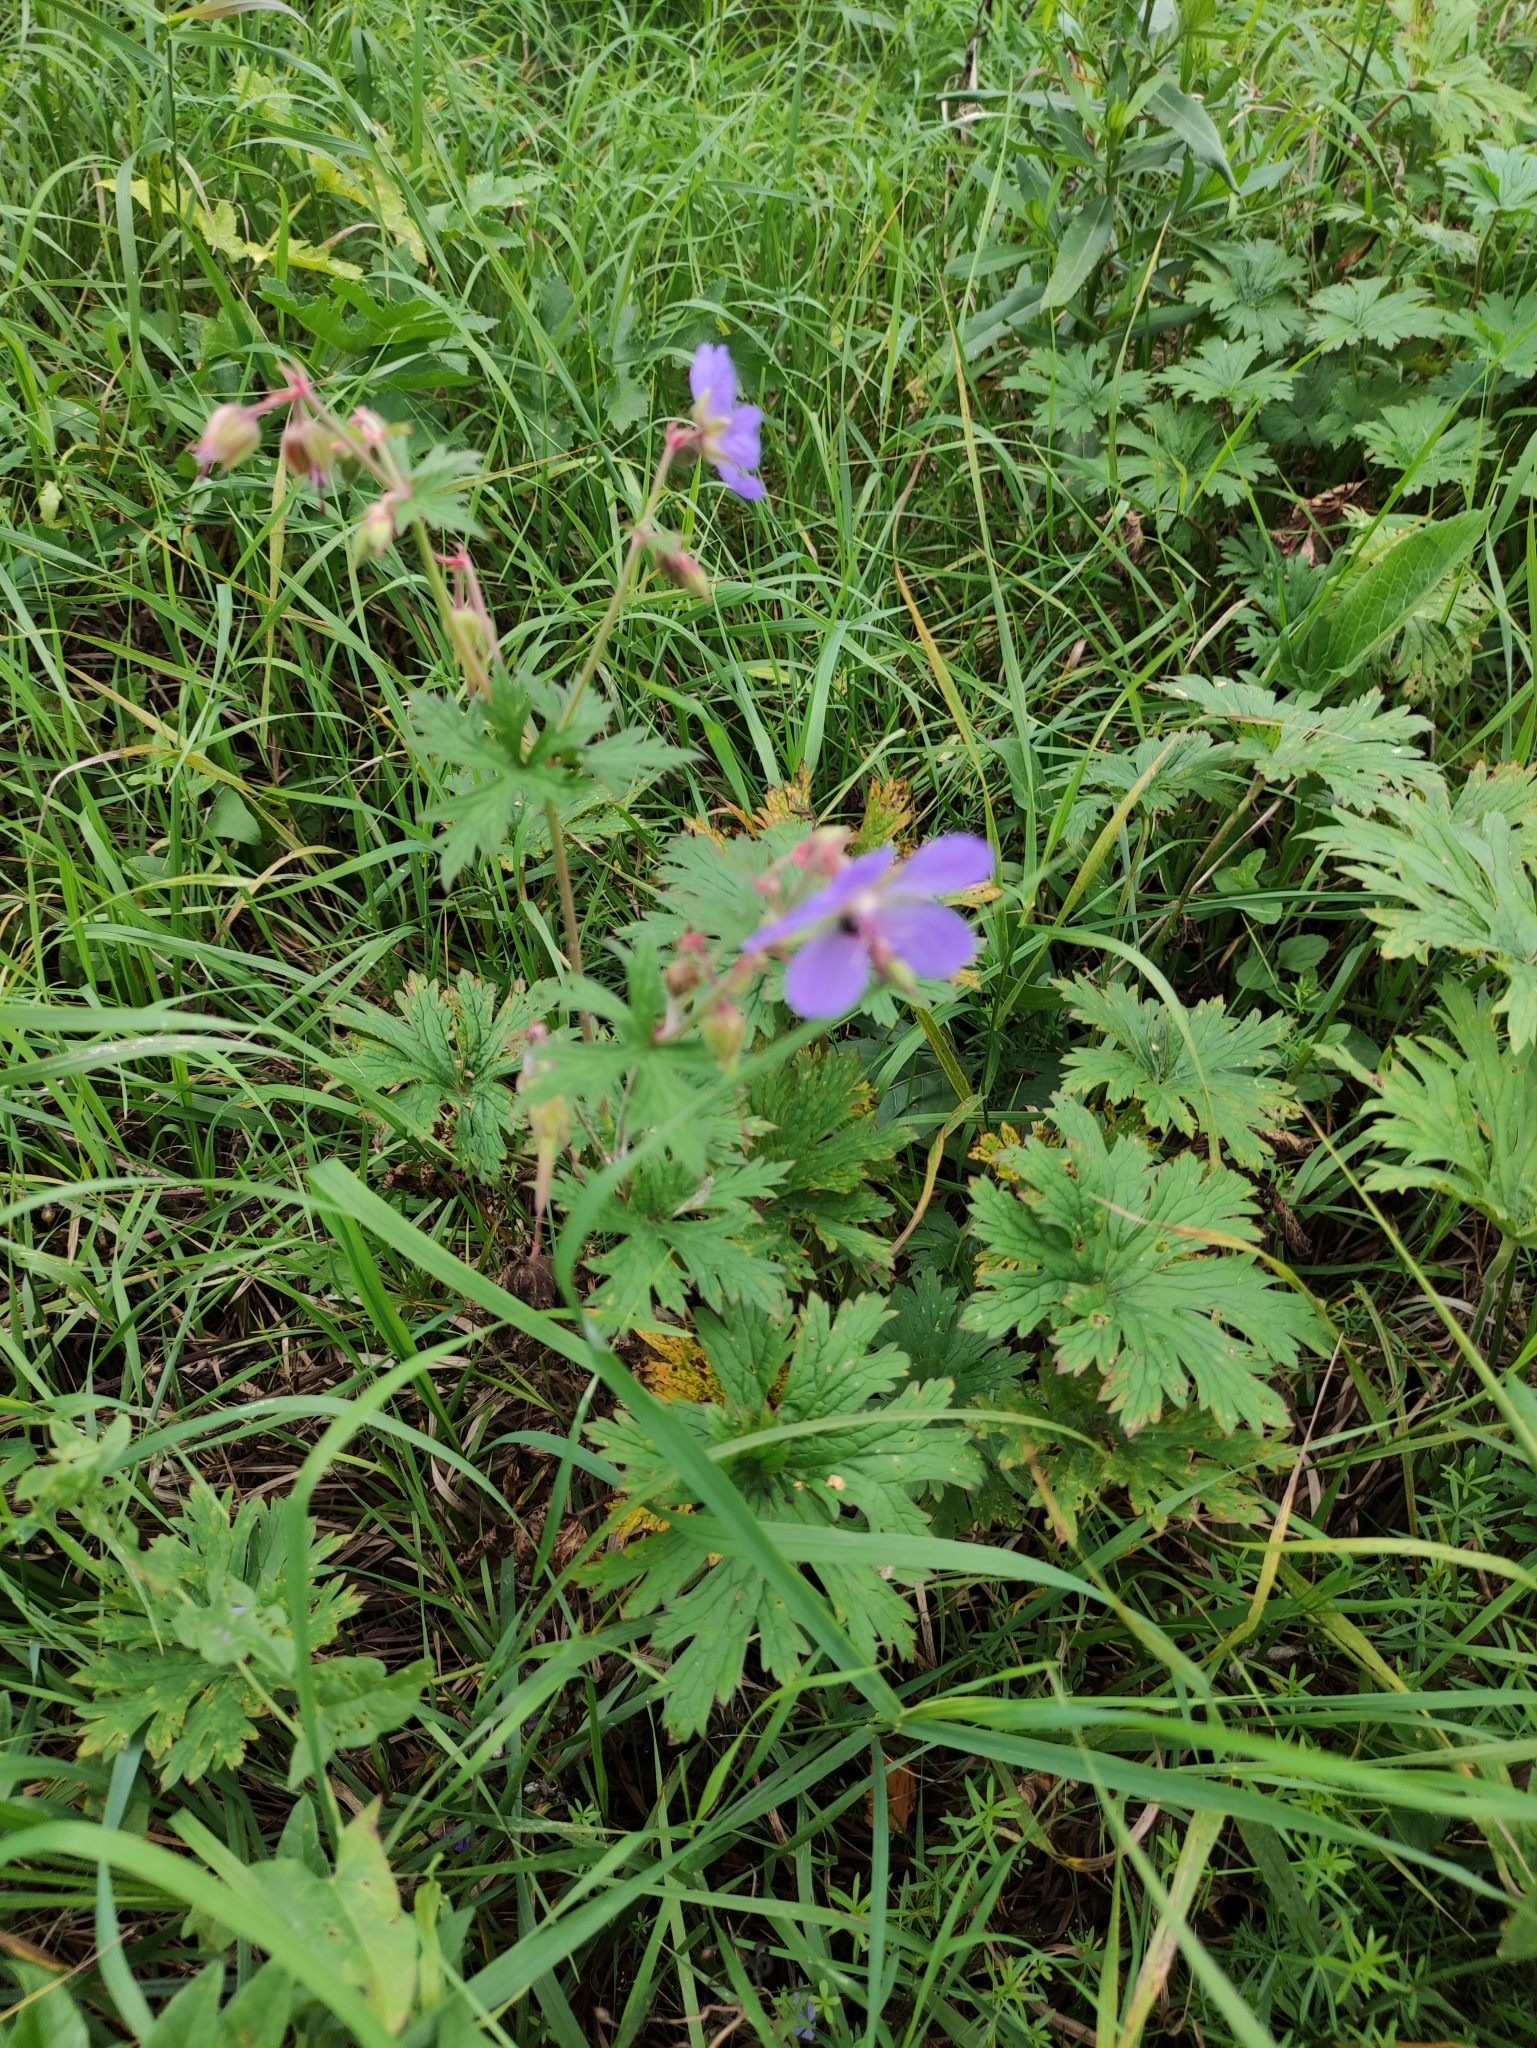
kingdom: Plantae
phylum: Tracheophyta
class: Magnoliopsida
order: Geraniales
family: Geraniaceae
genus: Geranium
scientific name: Geranium pratense
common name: Meadow crane's-bill
